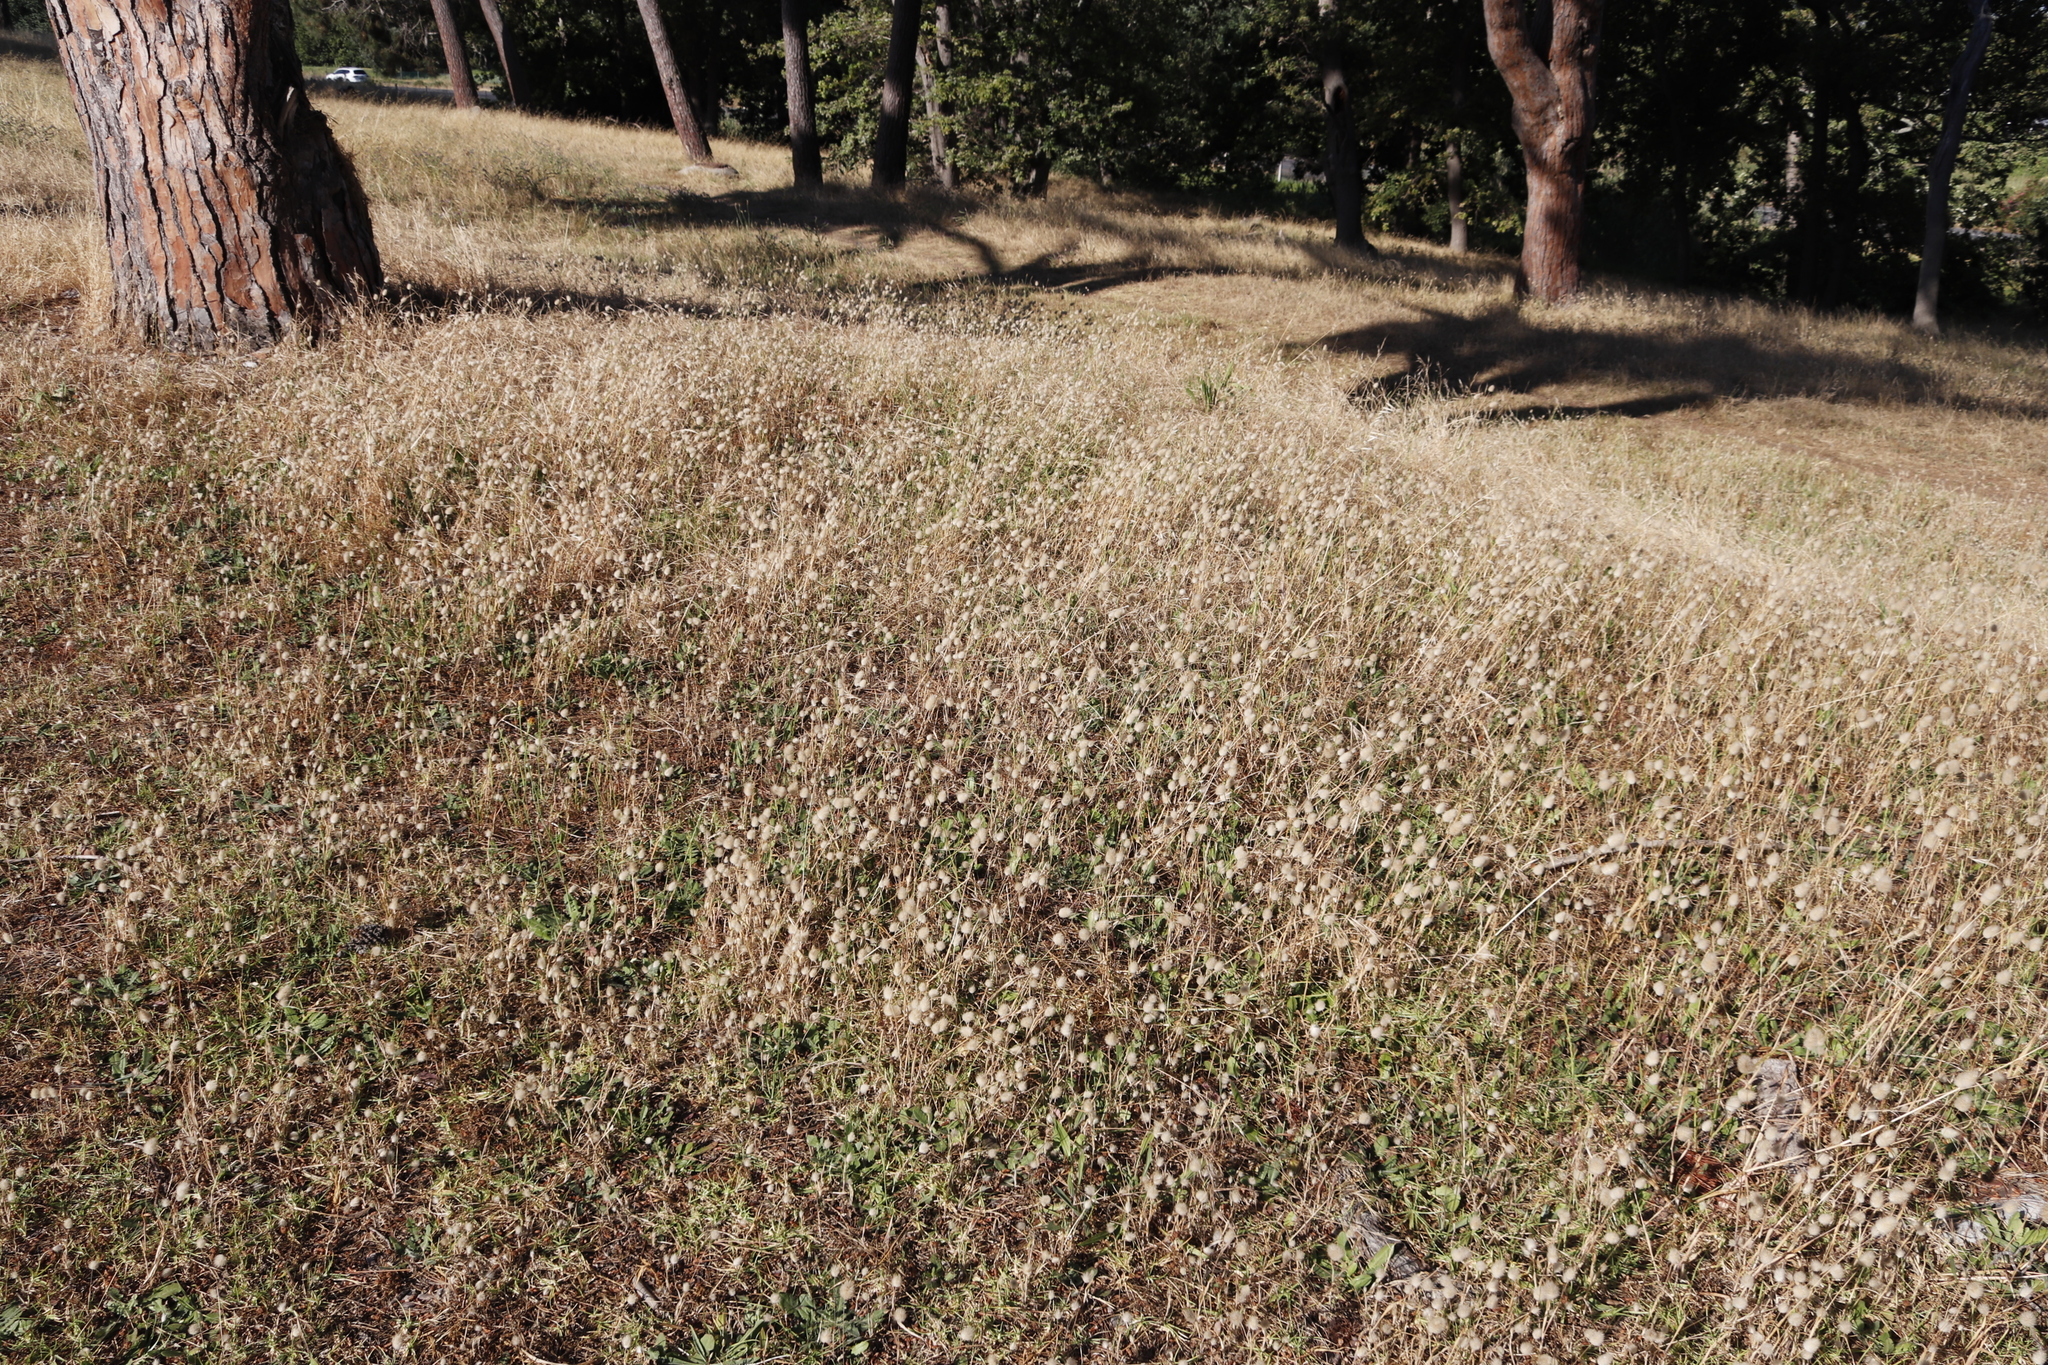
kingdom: Plantae
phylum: Tracheophyta
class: Liliopsida
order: Poales
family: Poaceae
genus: Lagurus
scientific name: Lagurus ovatus
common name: Hare's-tail
